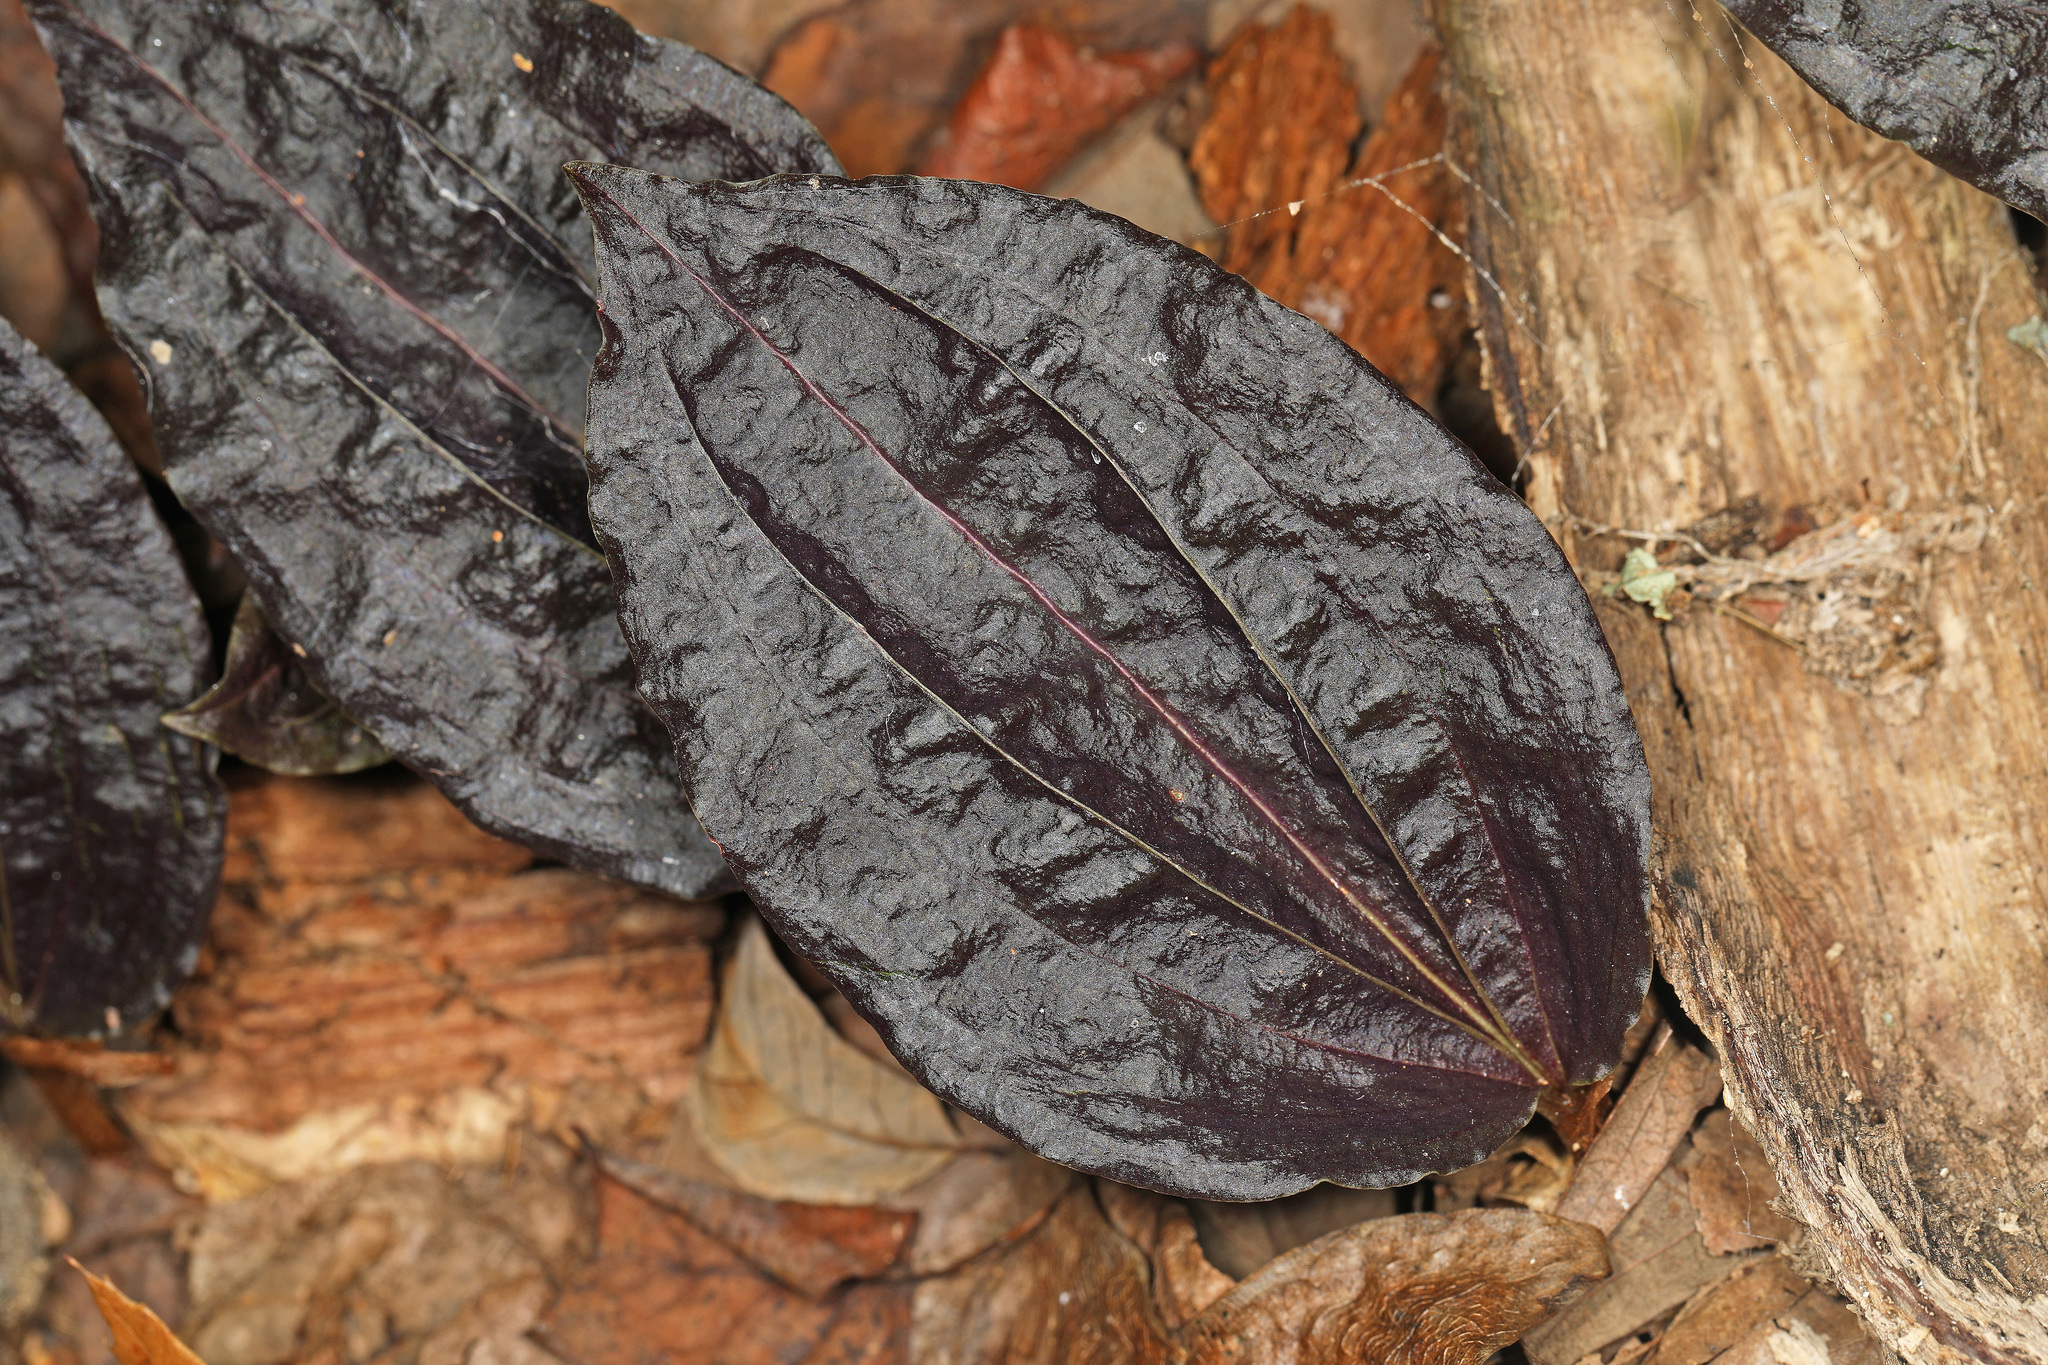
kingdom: Plantae
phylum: Tracheophyta
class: Liliopsida
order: Asparagales
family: Orchidaceae
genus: Tipularia
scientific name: Tipularia discolor
